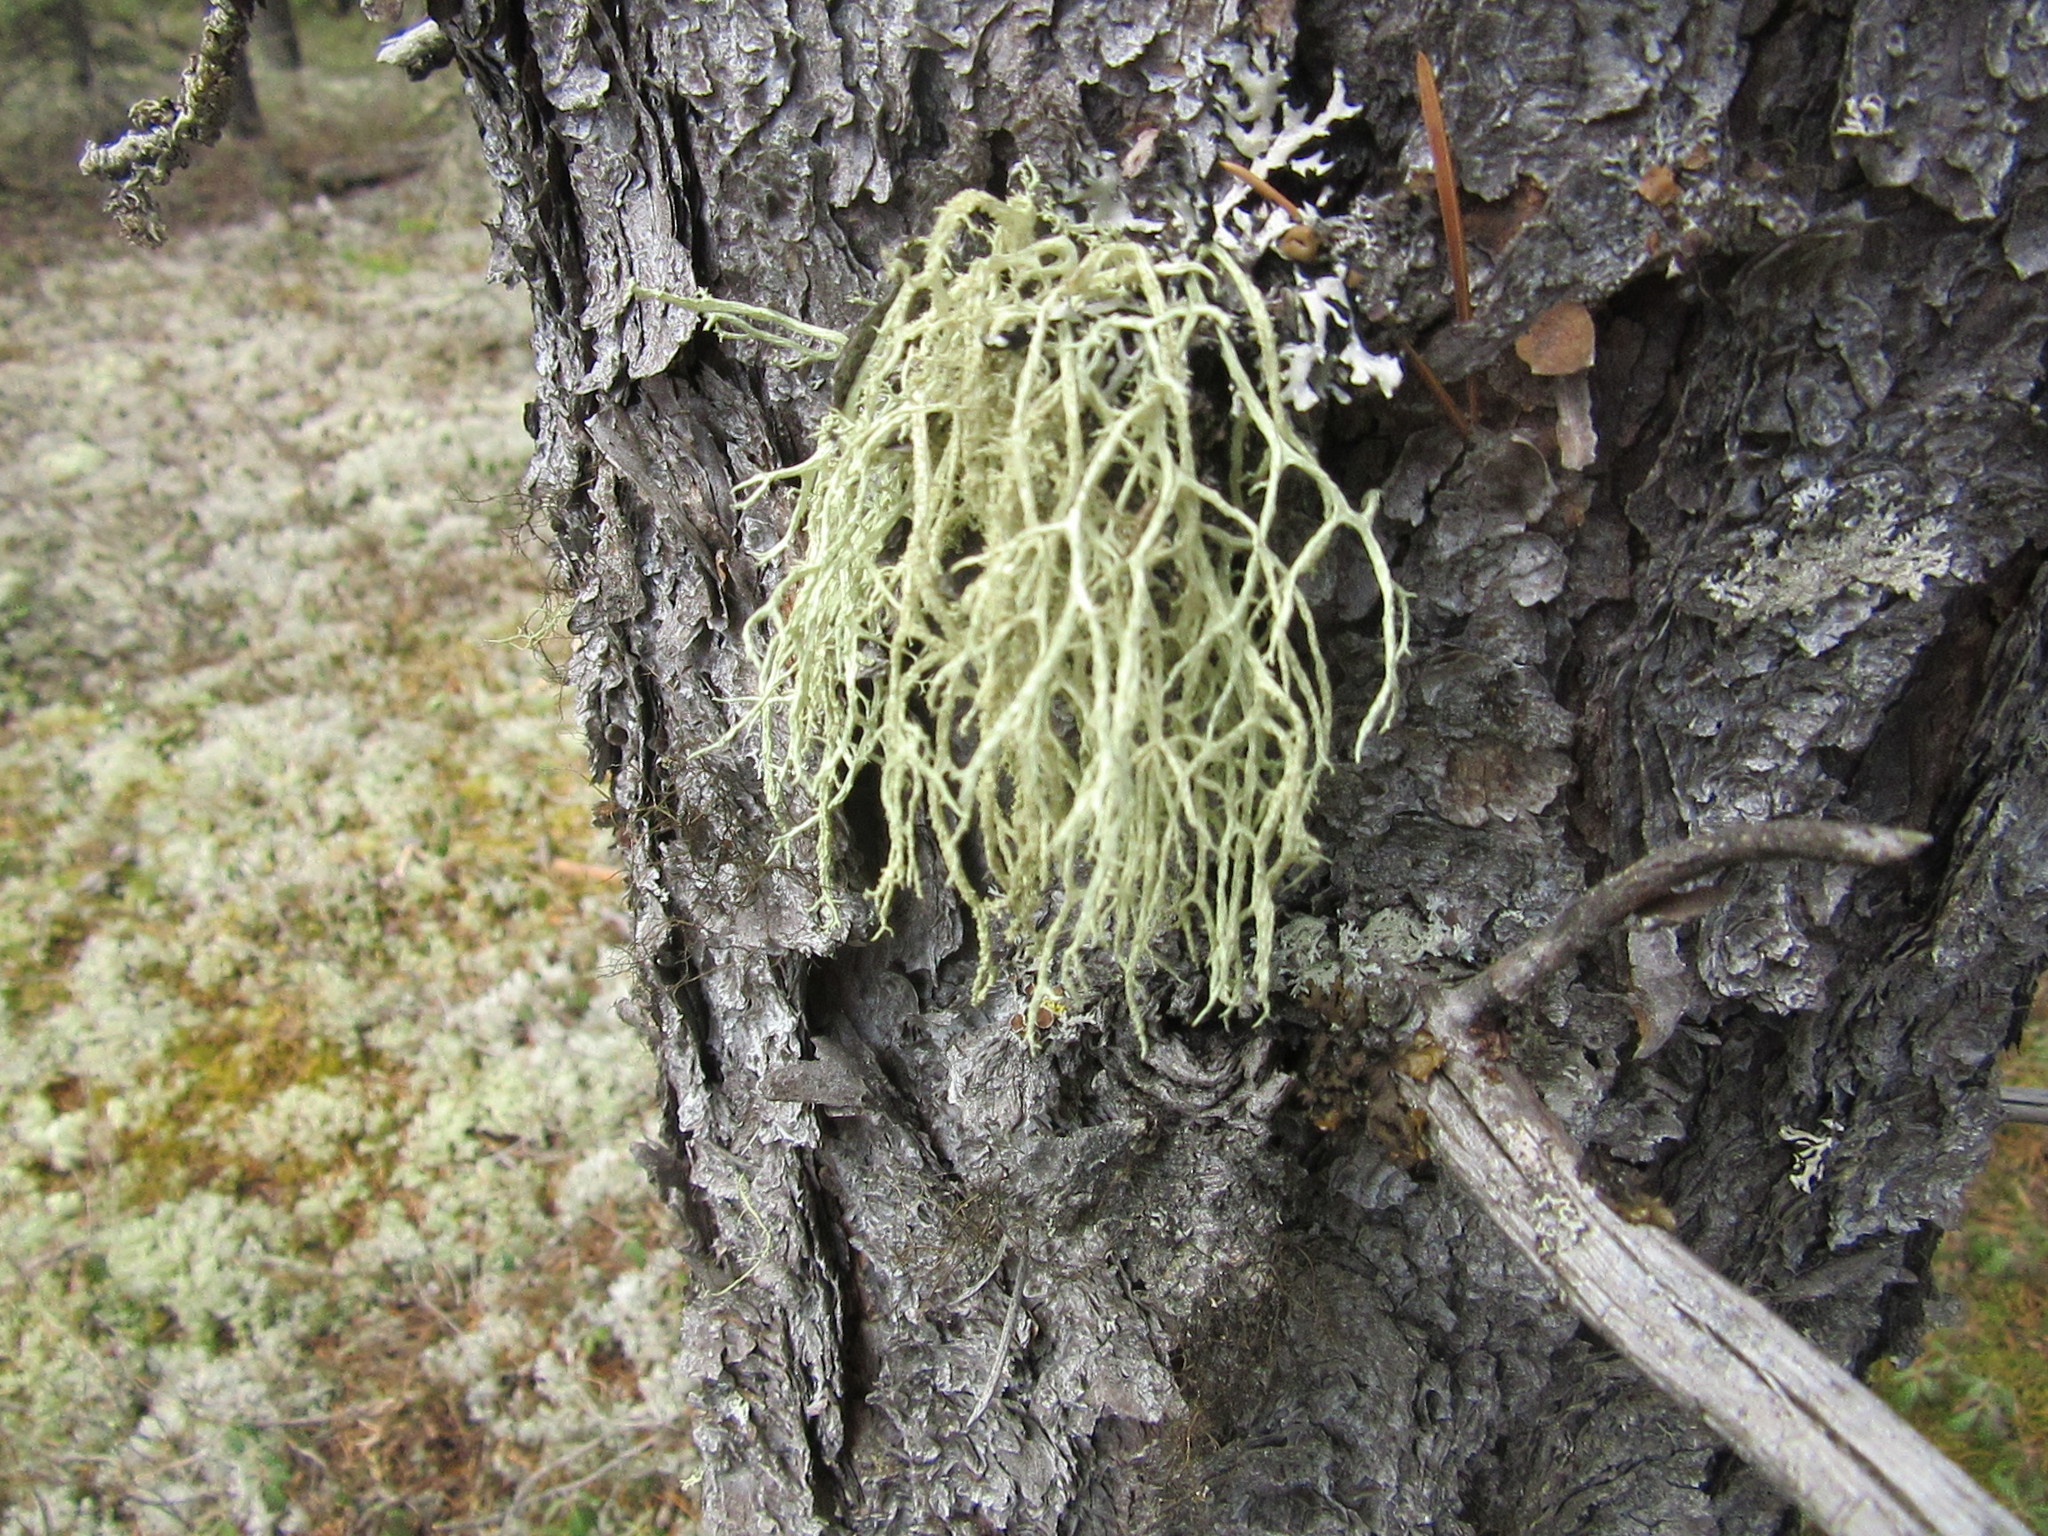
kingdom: Fungi
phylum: Ascomycota
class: Lecanoromycetes
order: Lecanorales
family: Parmeliaceae
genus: Evernia
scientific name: Evernia mesomorpha
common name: Boreal oak moss lichen
